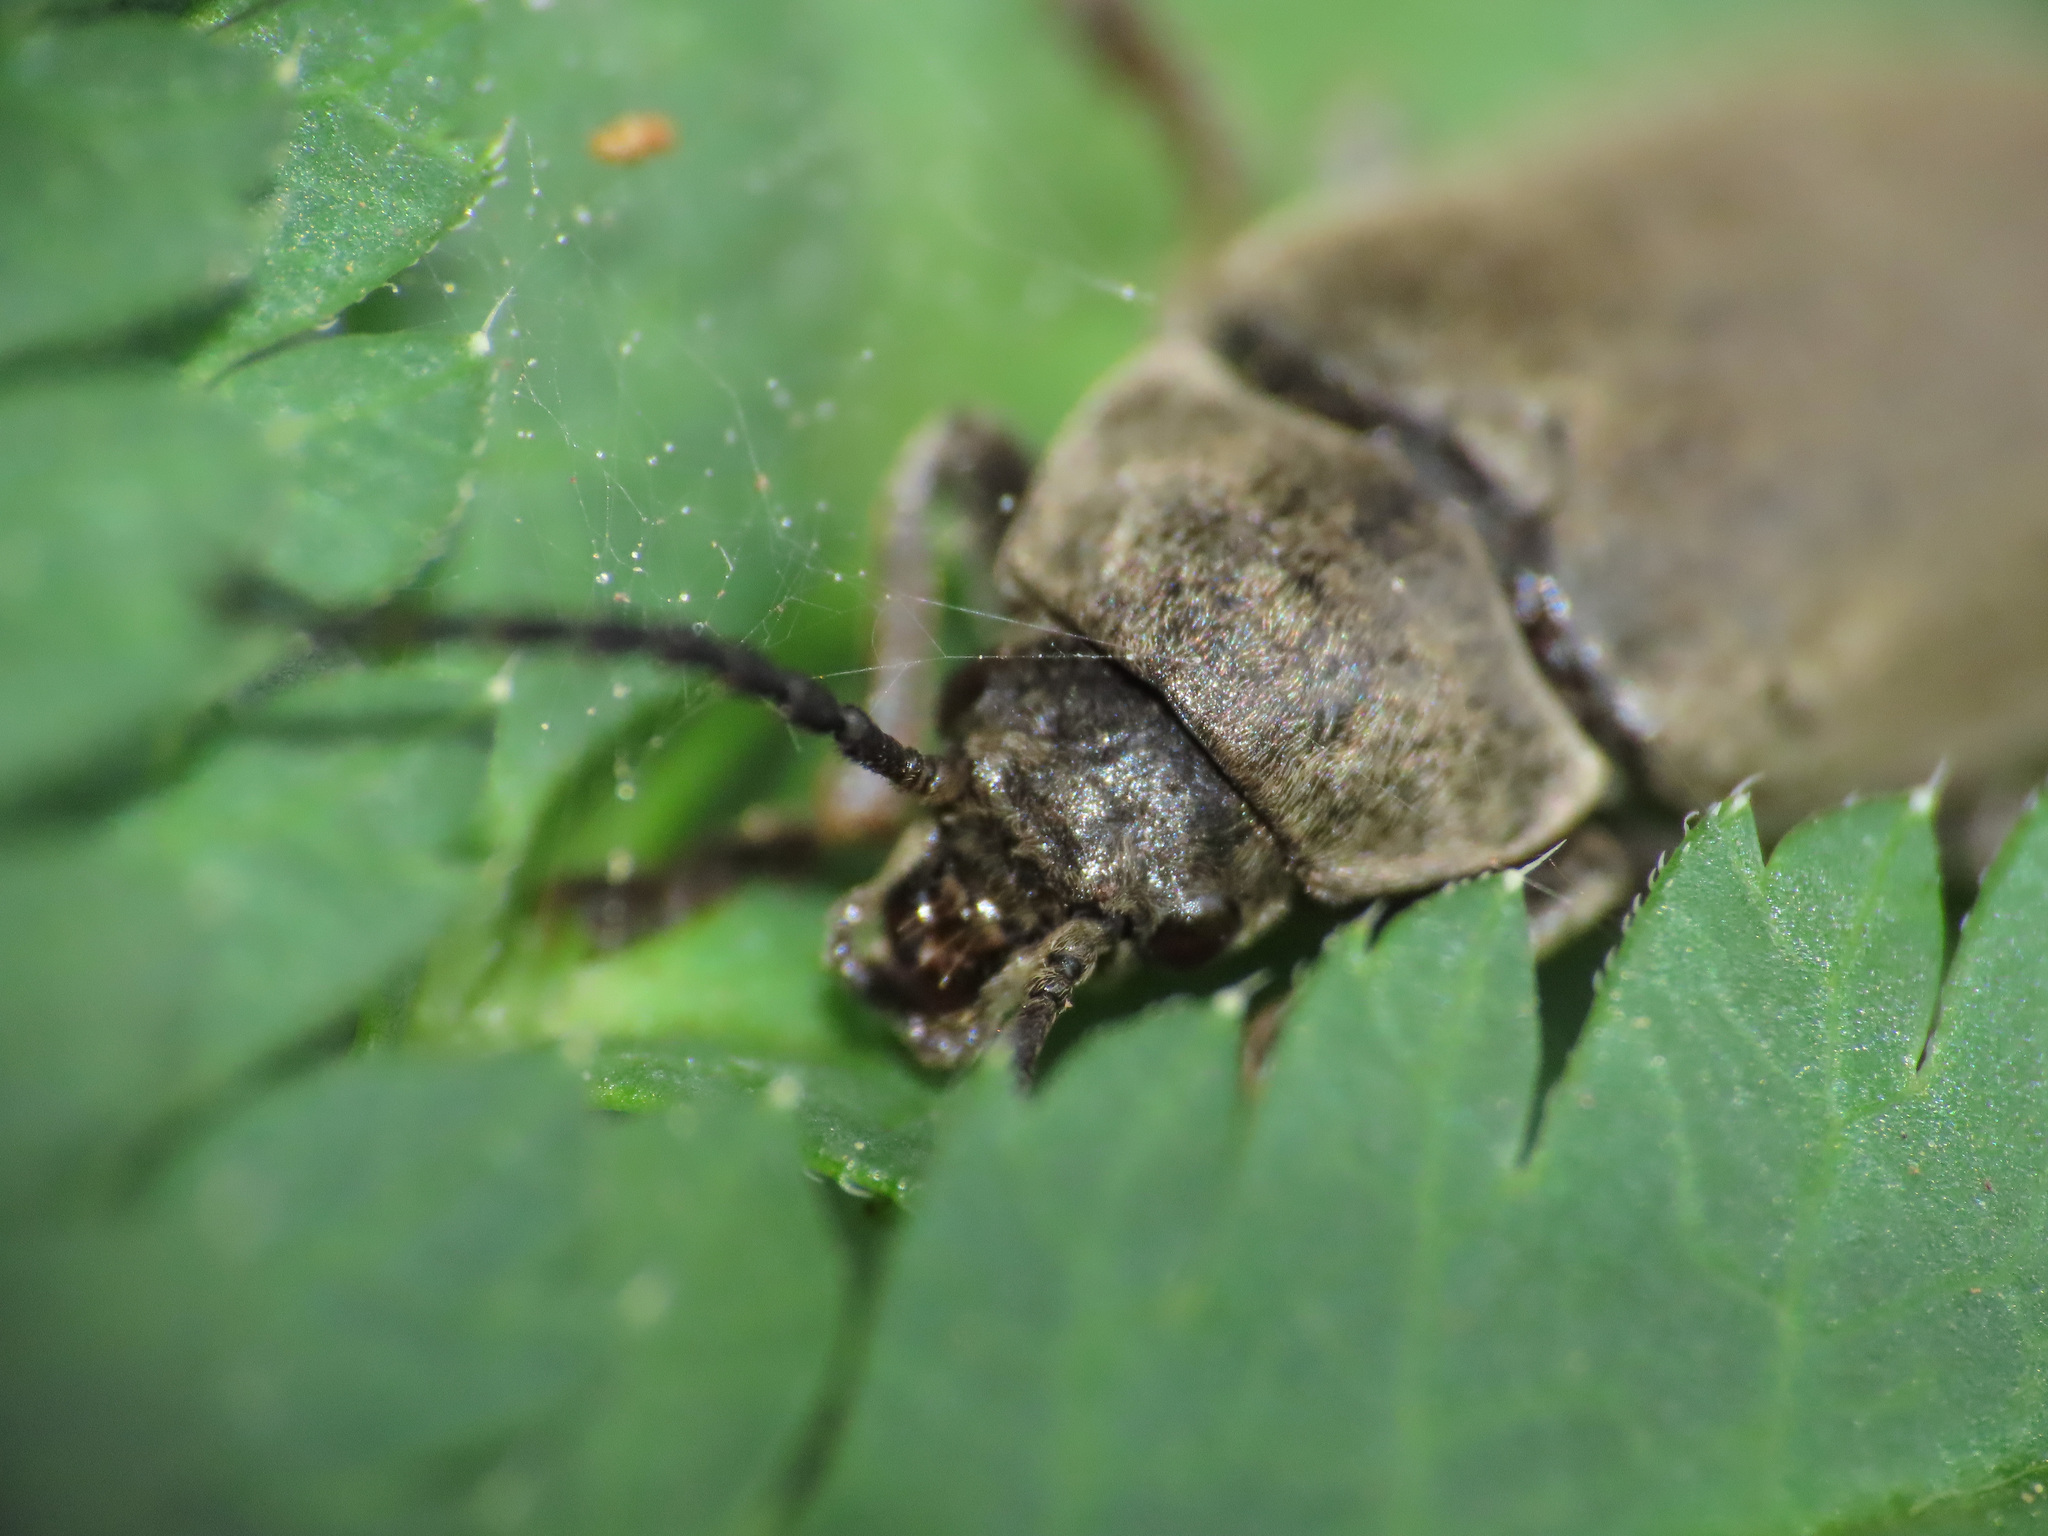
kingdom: Animalia
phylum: Arthropoda
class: Insecta
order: Coleoptera
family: Dascillidae
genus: Dascillus
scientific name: Dascillus cervinus
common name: Orchid beetle
